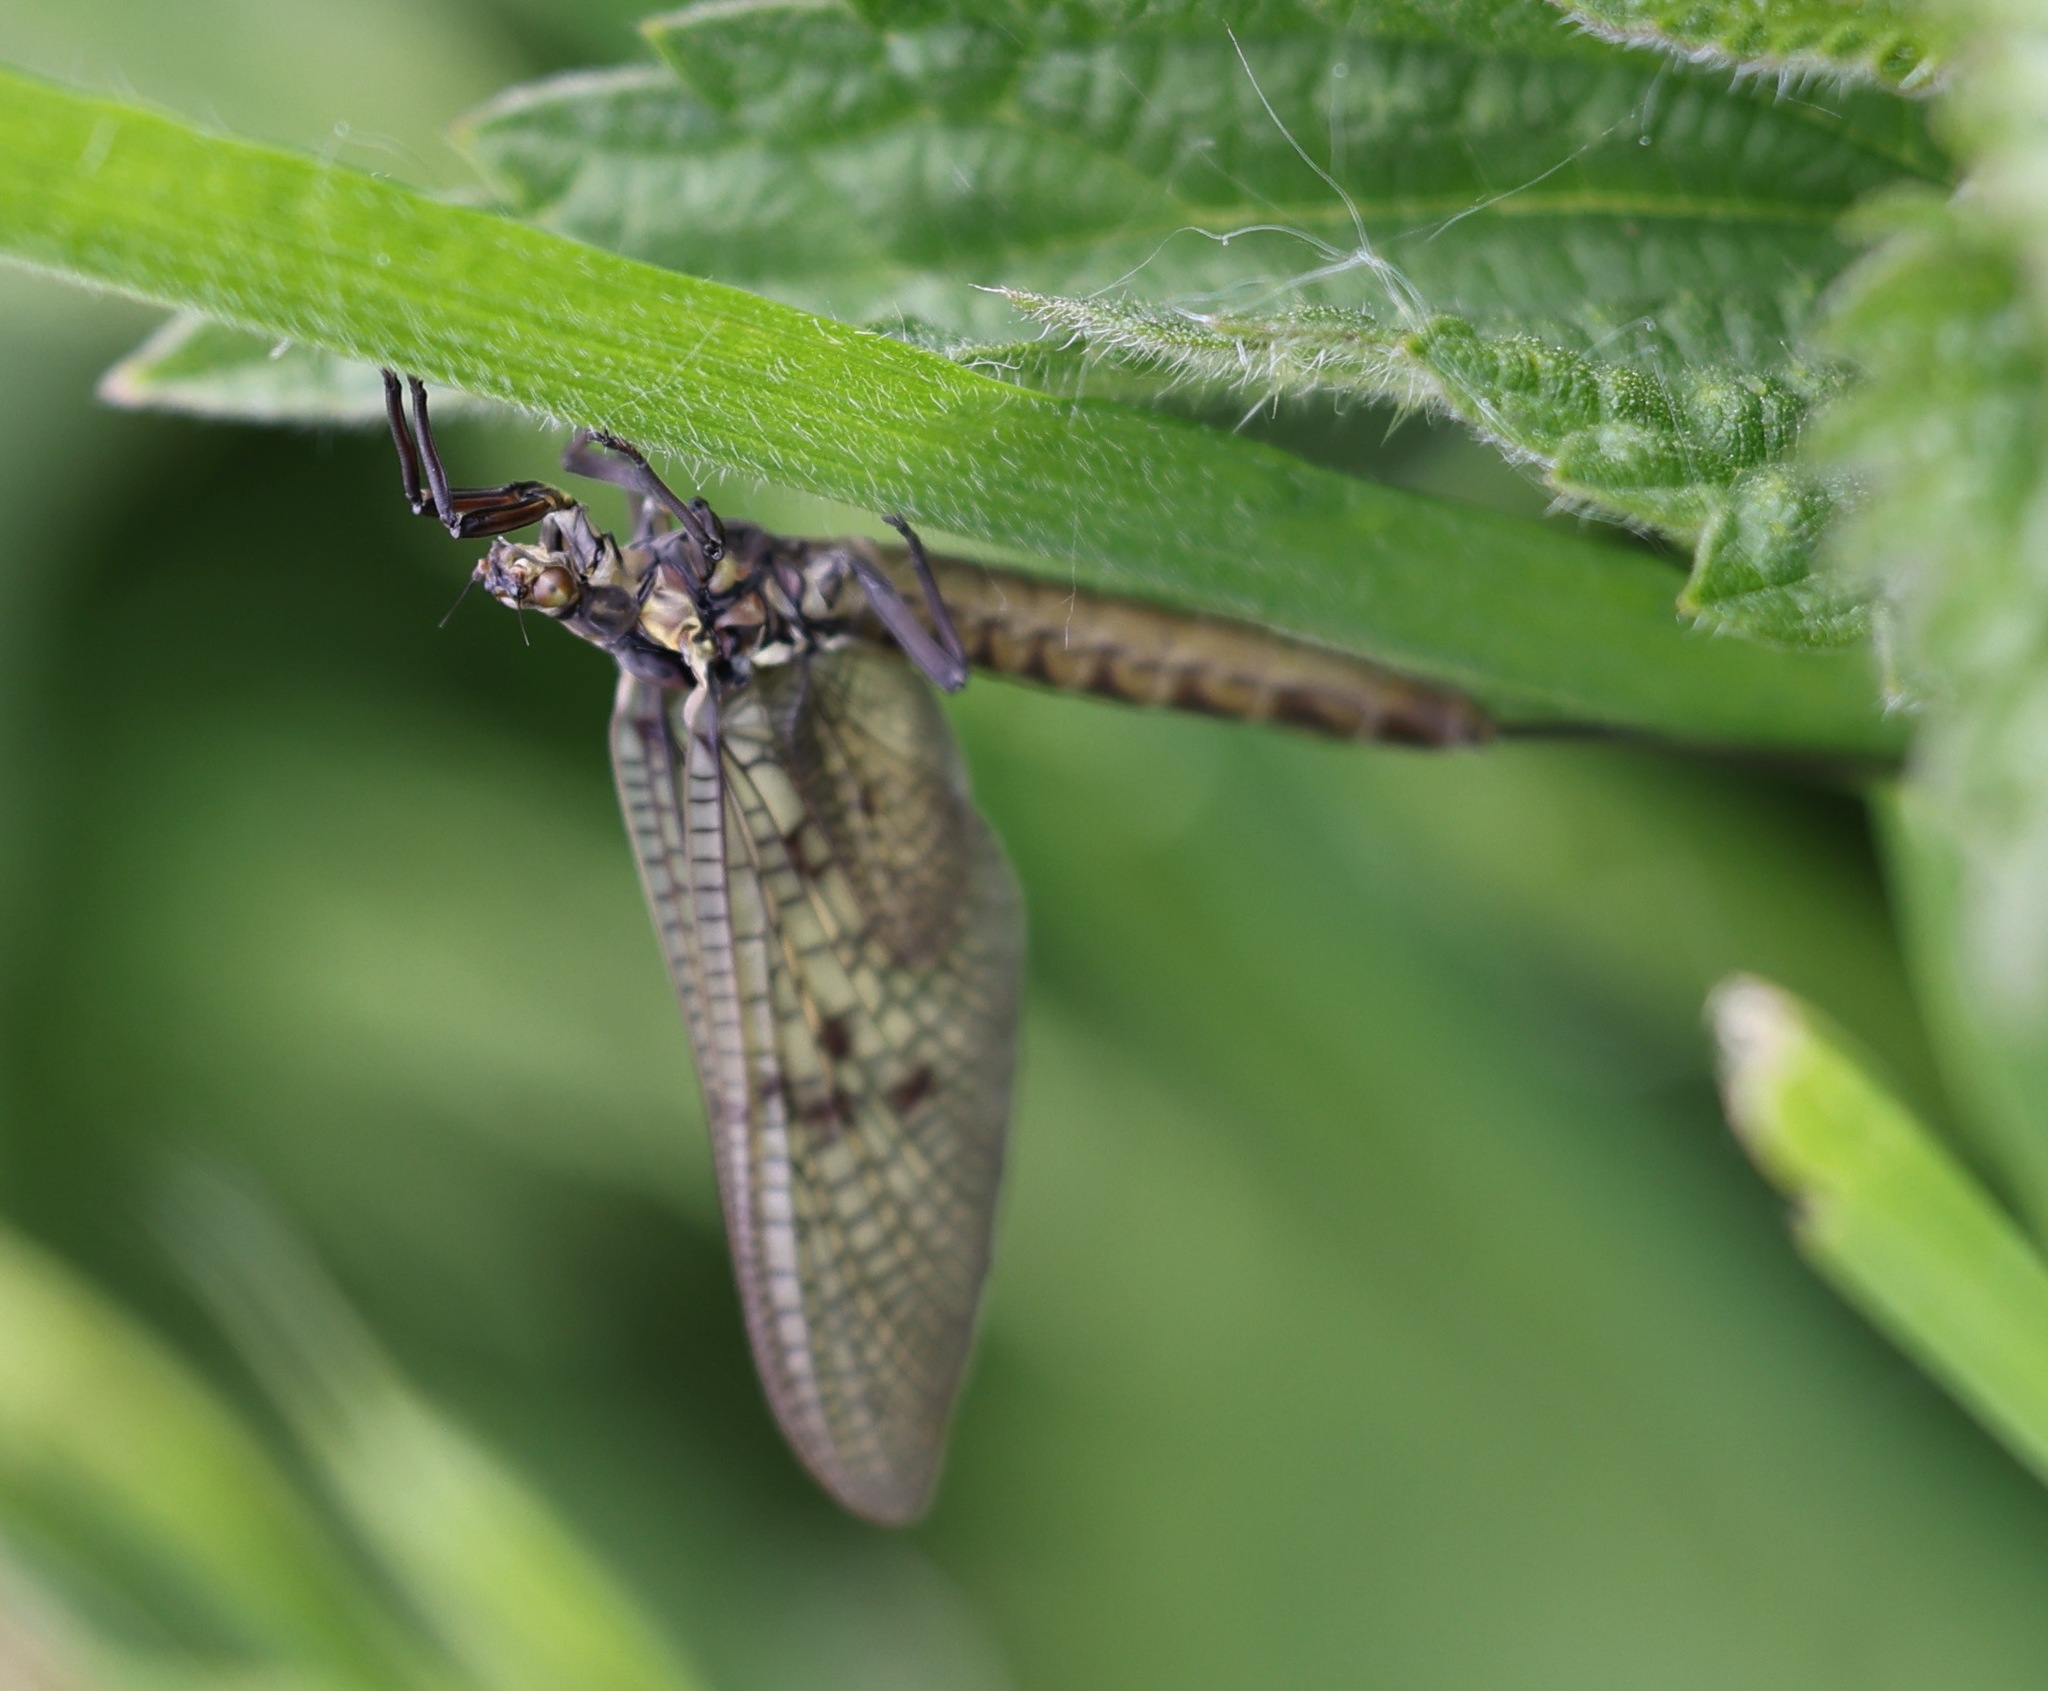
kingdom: Animalia
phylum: Arthropoda
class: Insecta
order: Ephemeroptera
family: Ephemeridae
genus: Ephemera
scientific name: Ephemera vulgata
